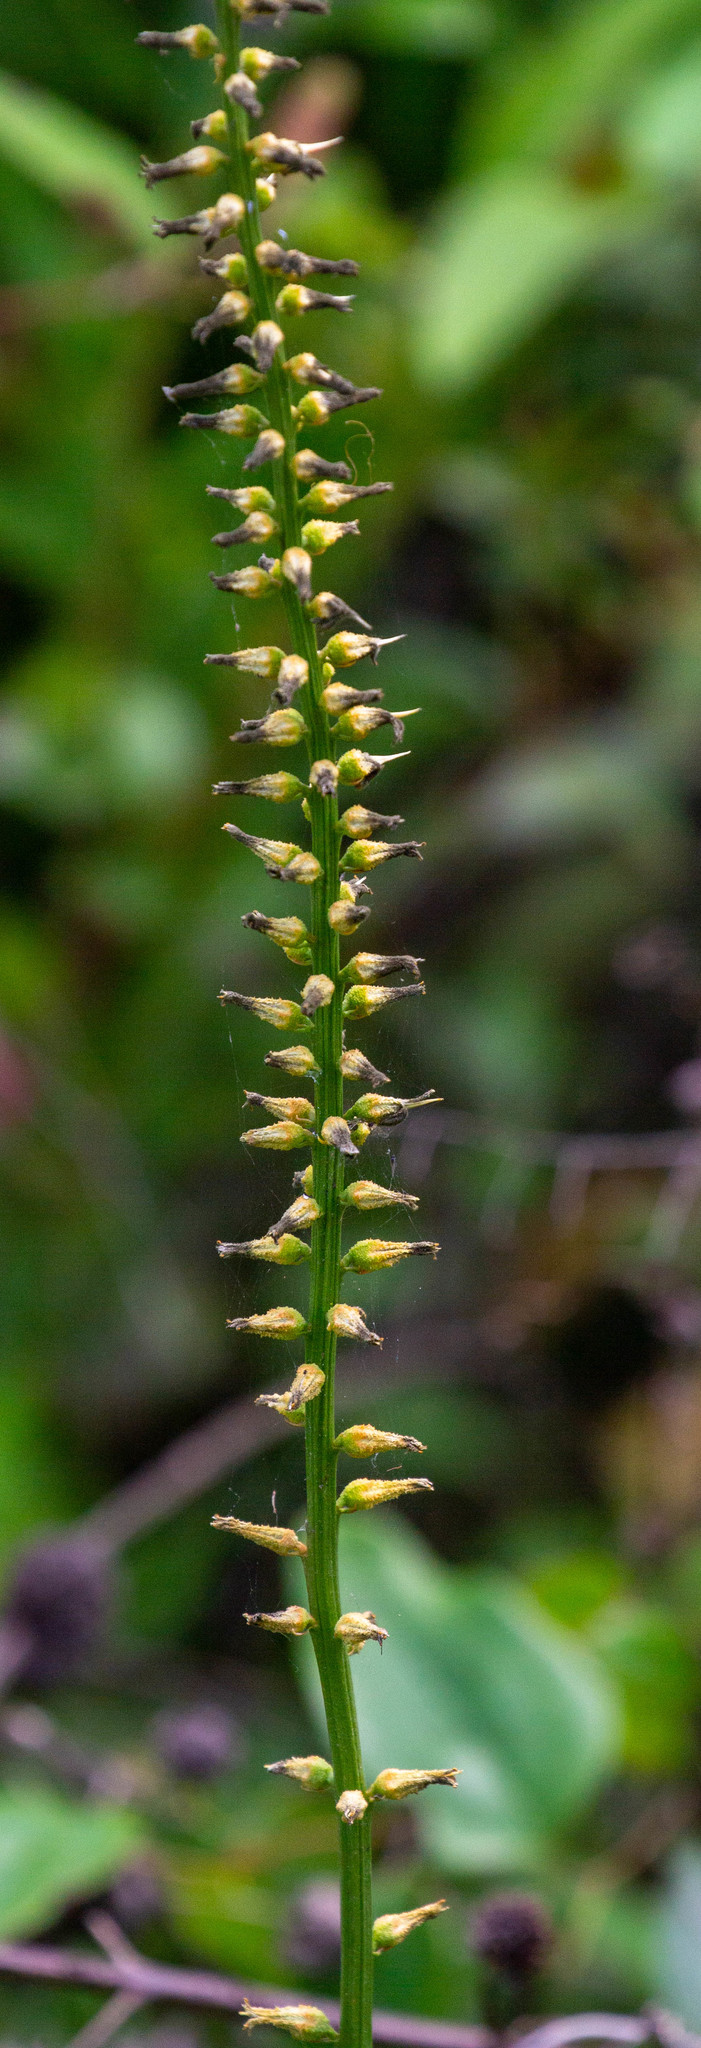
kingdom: Plantae
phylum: Tracheophyta
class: Liliopsida
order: Dioscoreales
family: Nartheciaceae
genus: Aletris
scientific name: Aletris lutea
